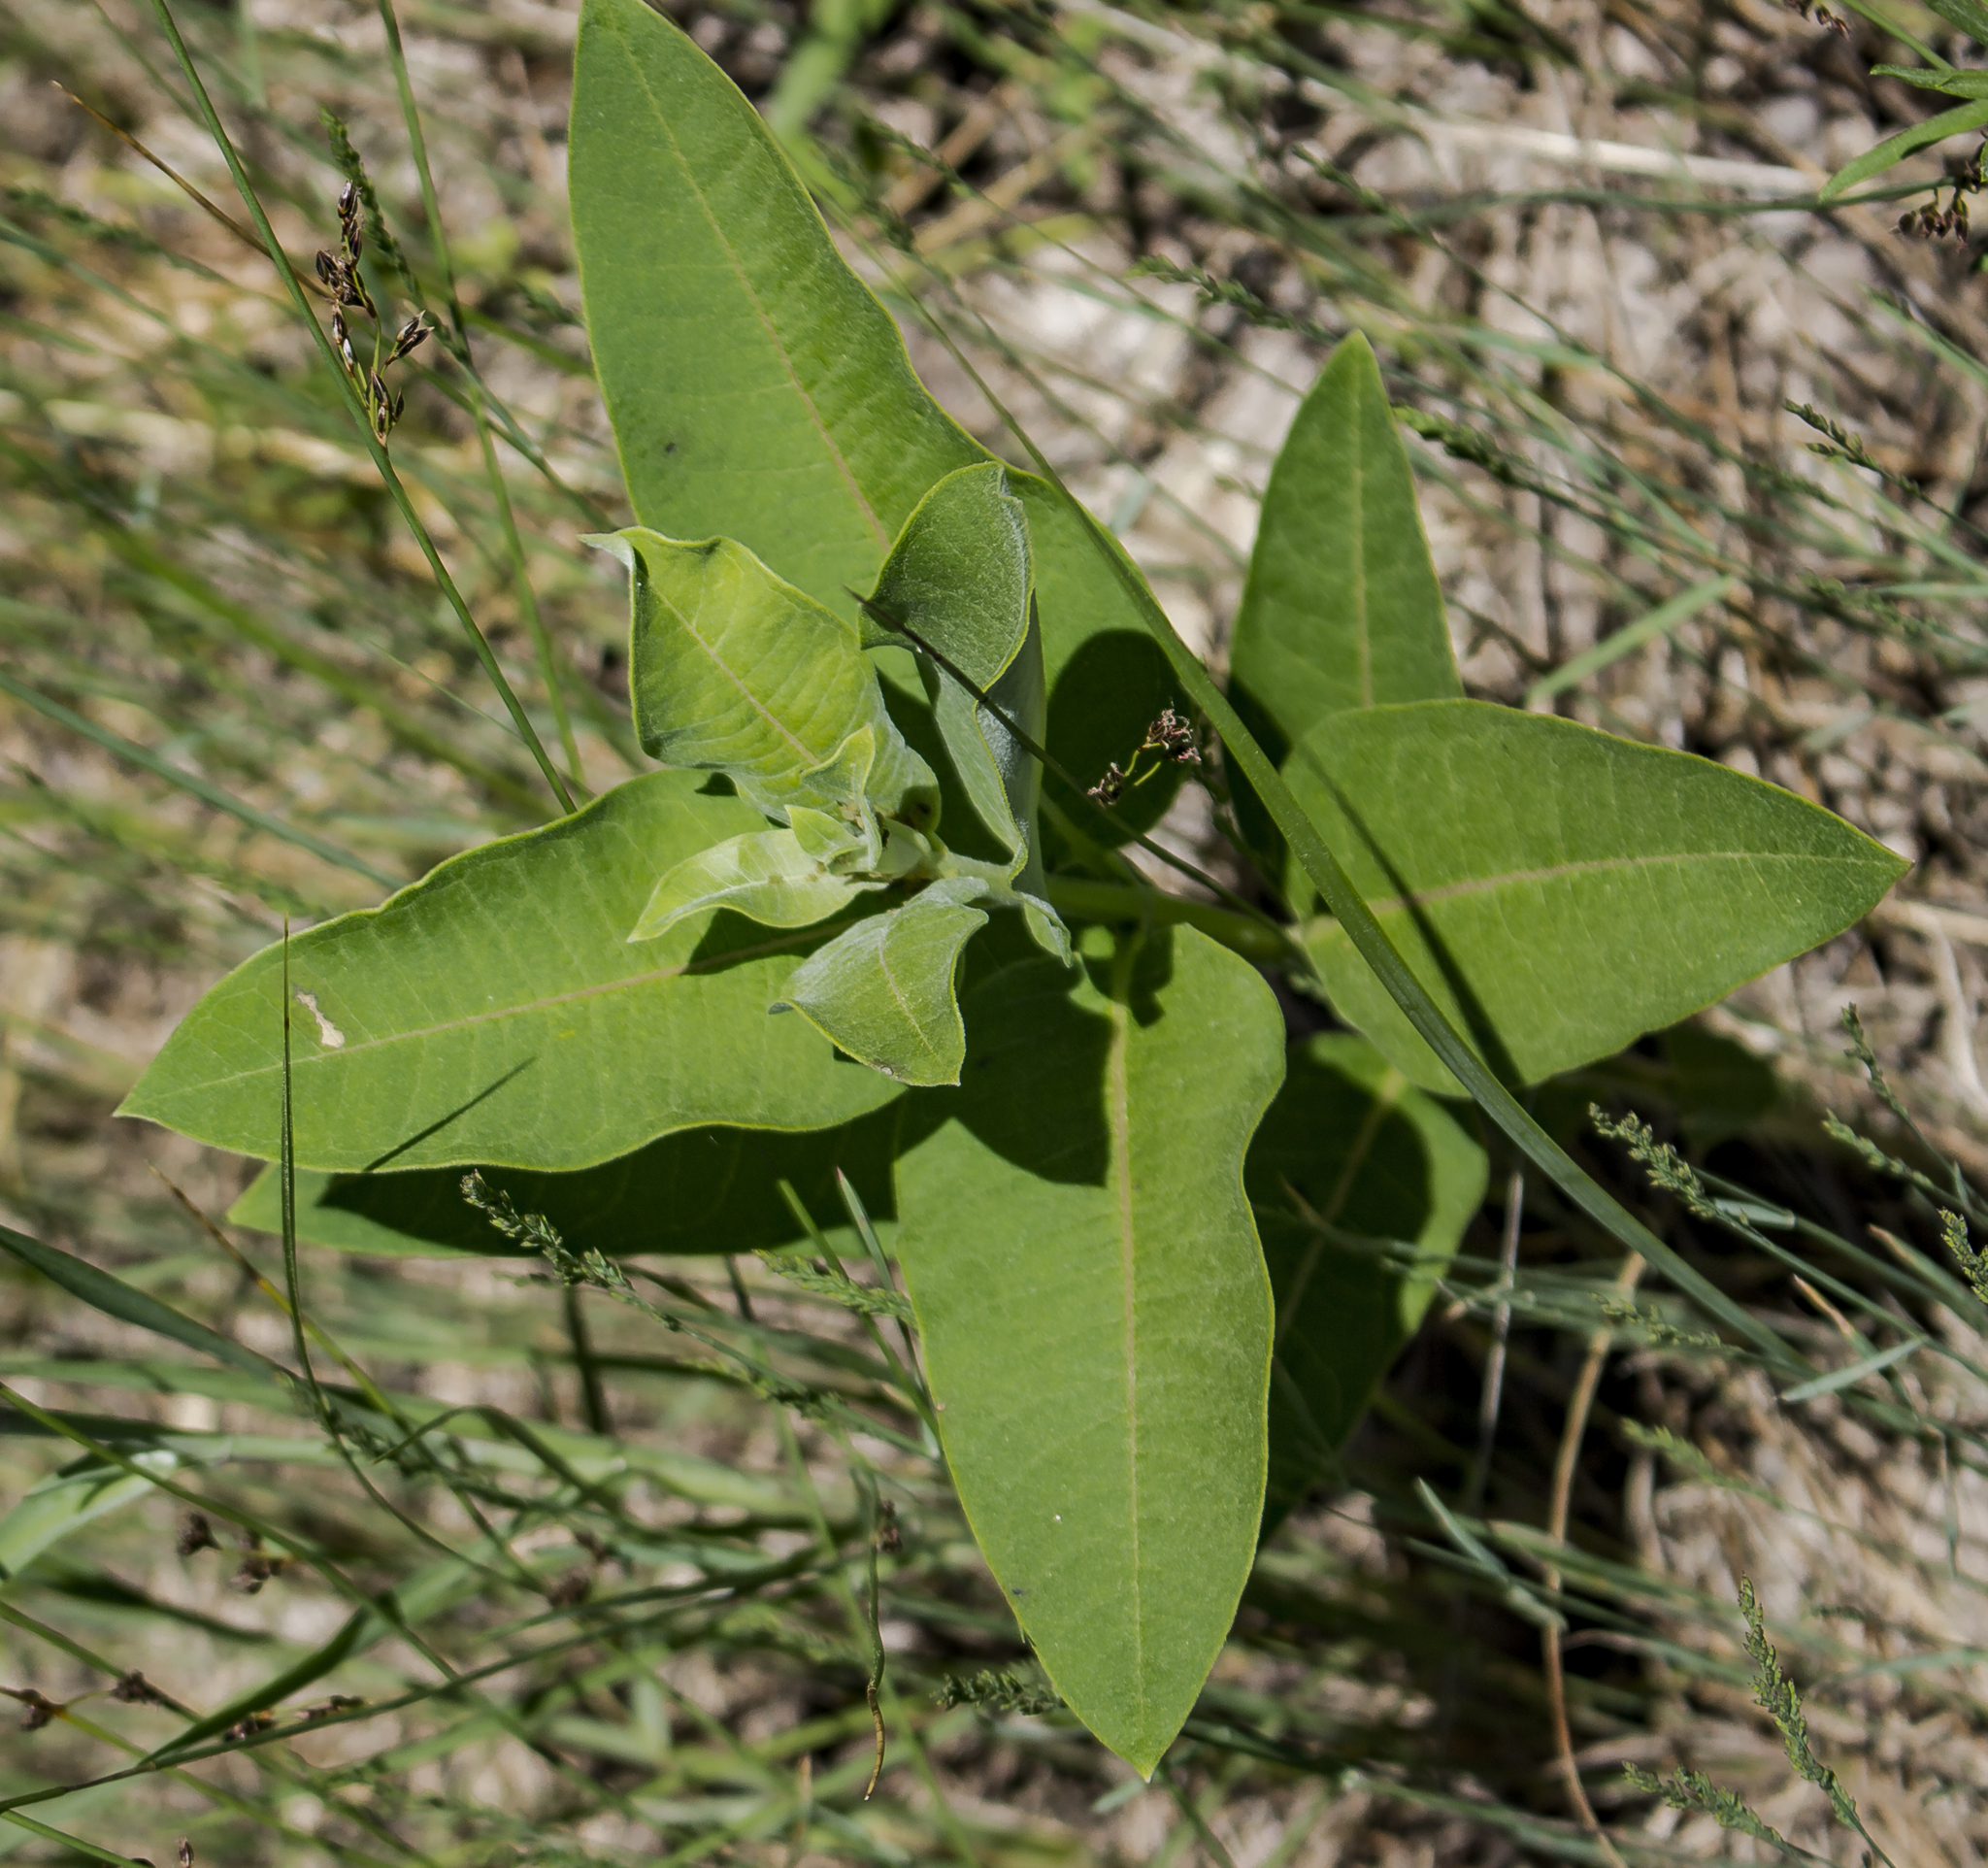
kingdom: Plantae
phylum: Tracheophyta
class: Magnoliopsida
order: Gentianales
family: Apocynaceae
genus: Asclepias
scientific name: Asclepias syriaca
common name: Common milkweed
